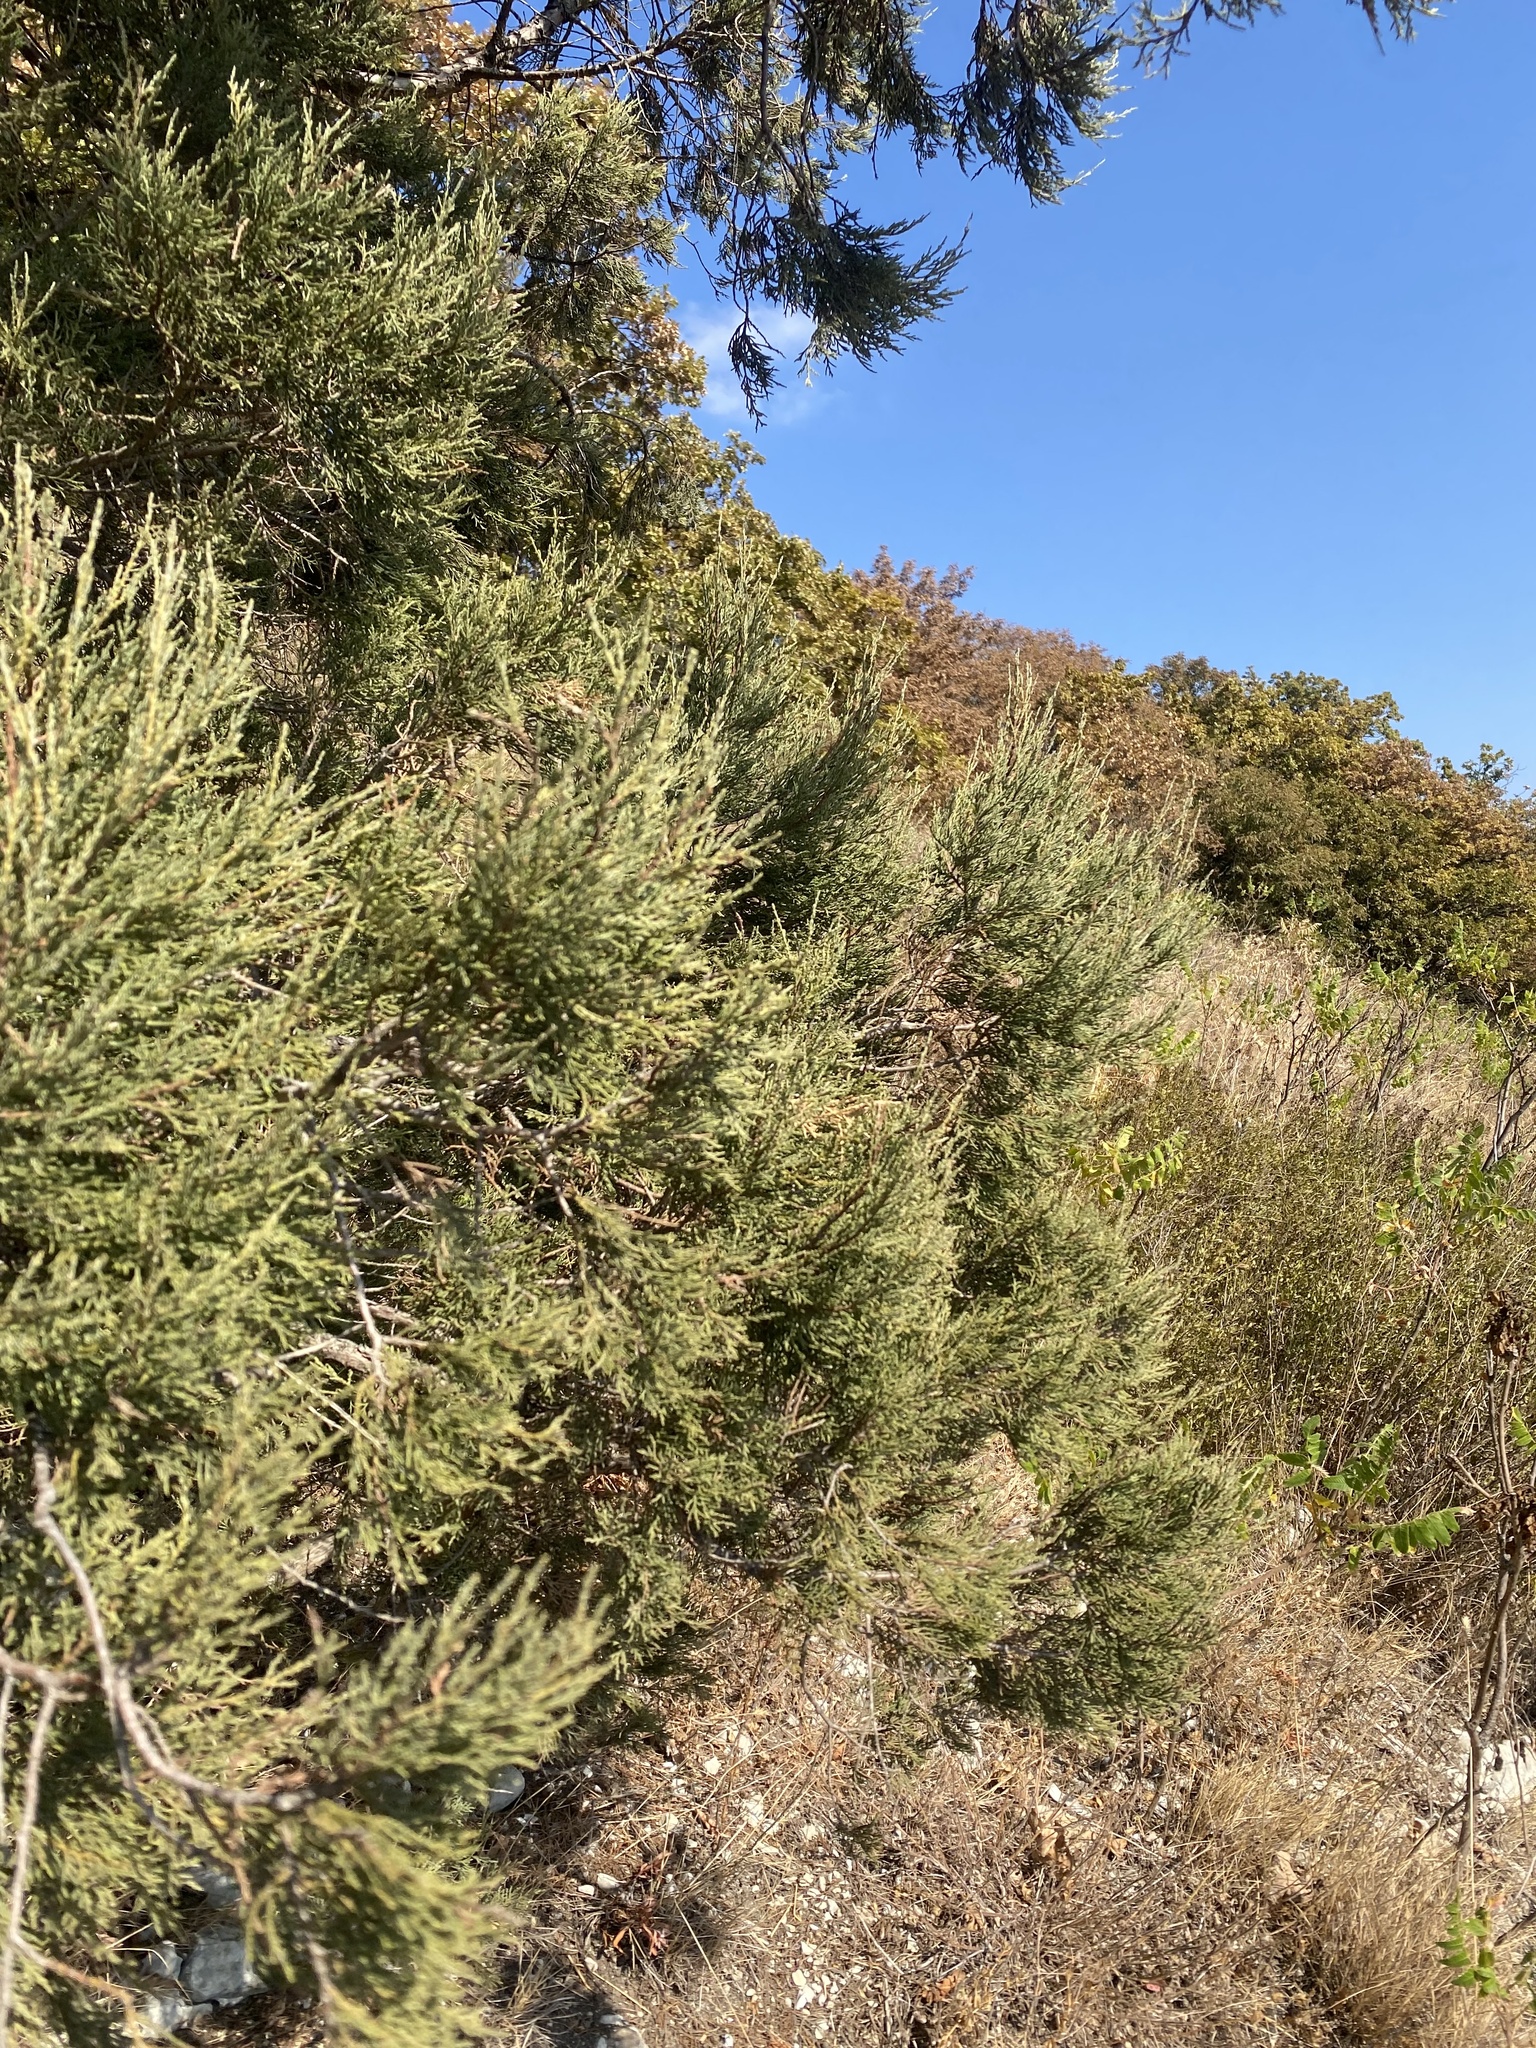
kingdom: Plantae
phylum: Tracheophyta
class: Pinopsida
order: Pinales
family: Cupressaceae
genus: Juniperus
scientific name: Juniperus excelsa
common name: Crimean juniper
